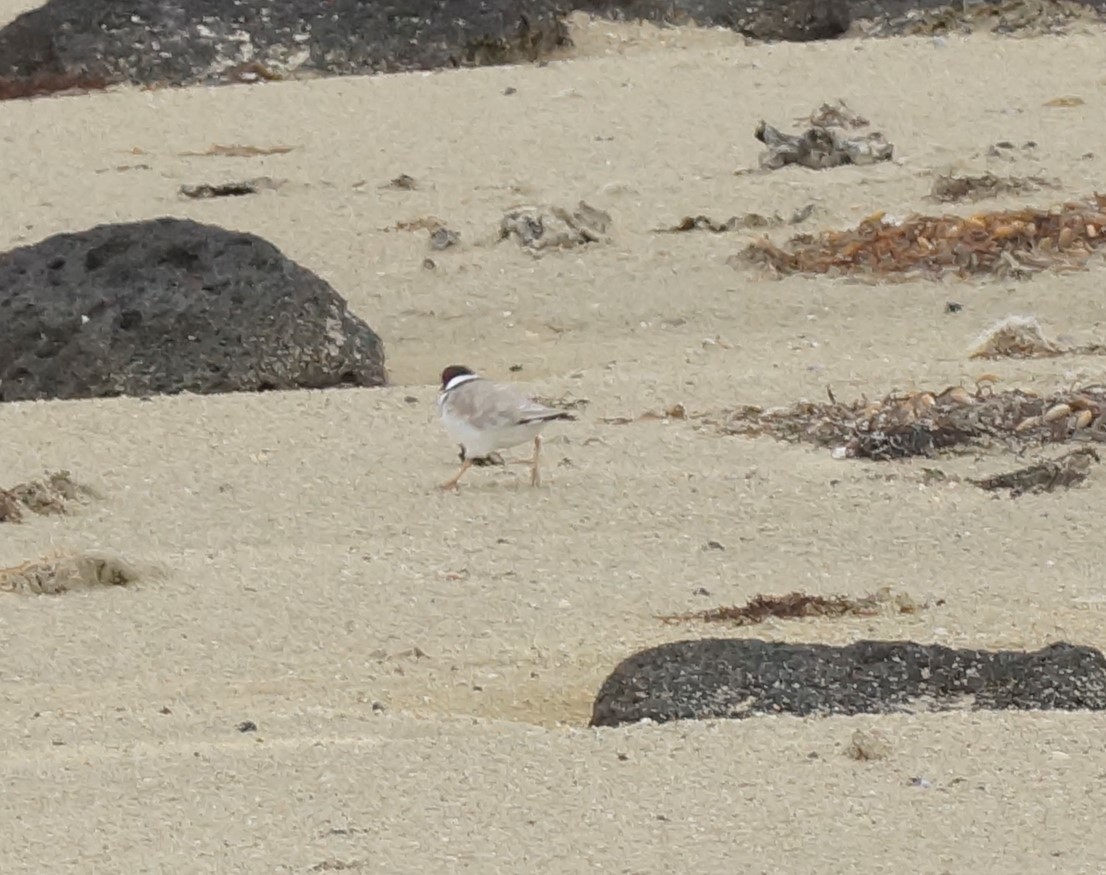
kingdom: Animalia
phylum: Chordata
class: Aves
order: Charadriiformes
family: Charadriidae
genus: Thinornis
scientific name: Thinornis cucullatus
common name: Hooded dotterel
